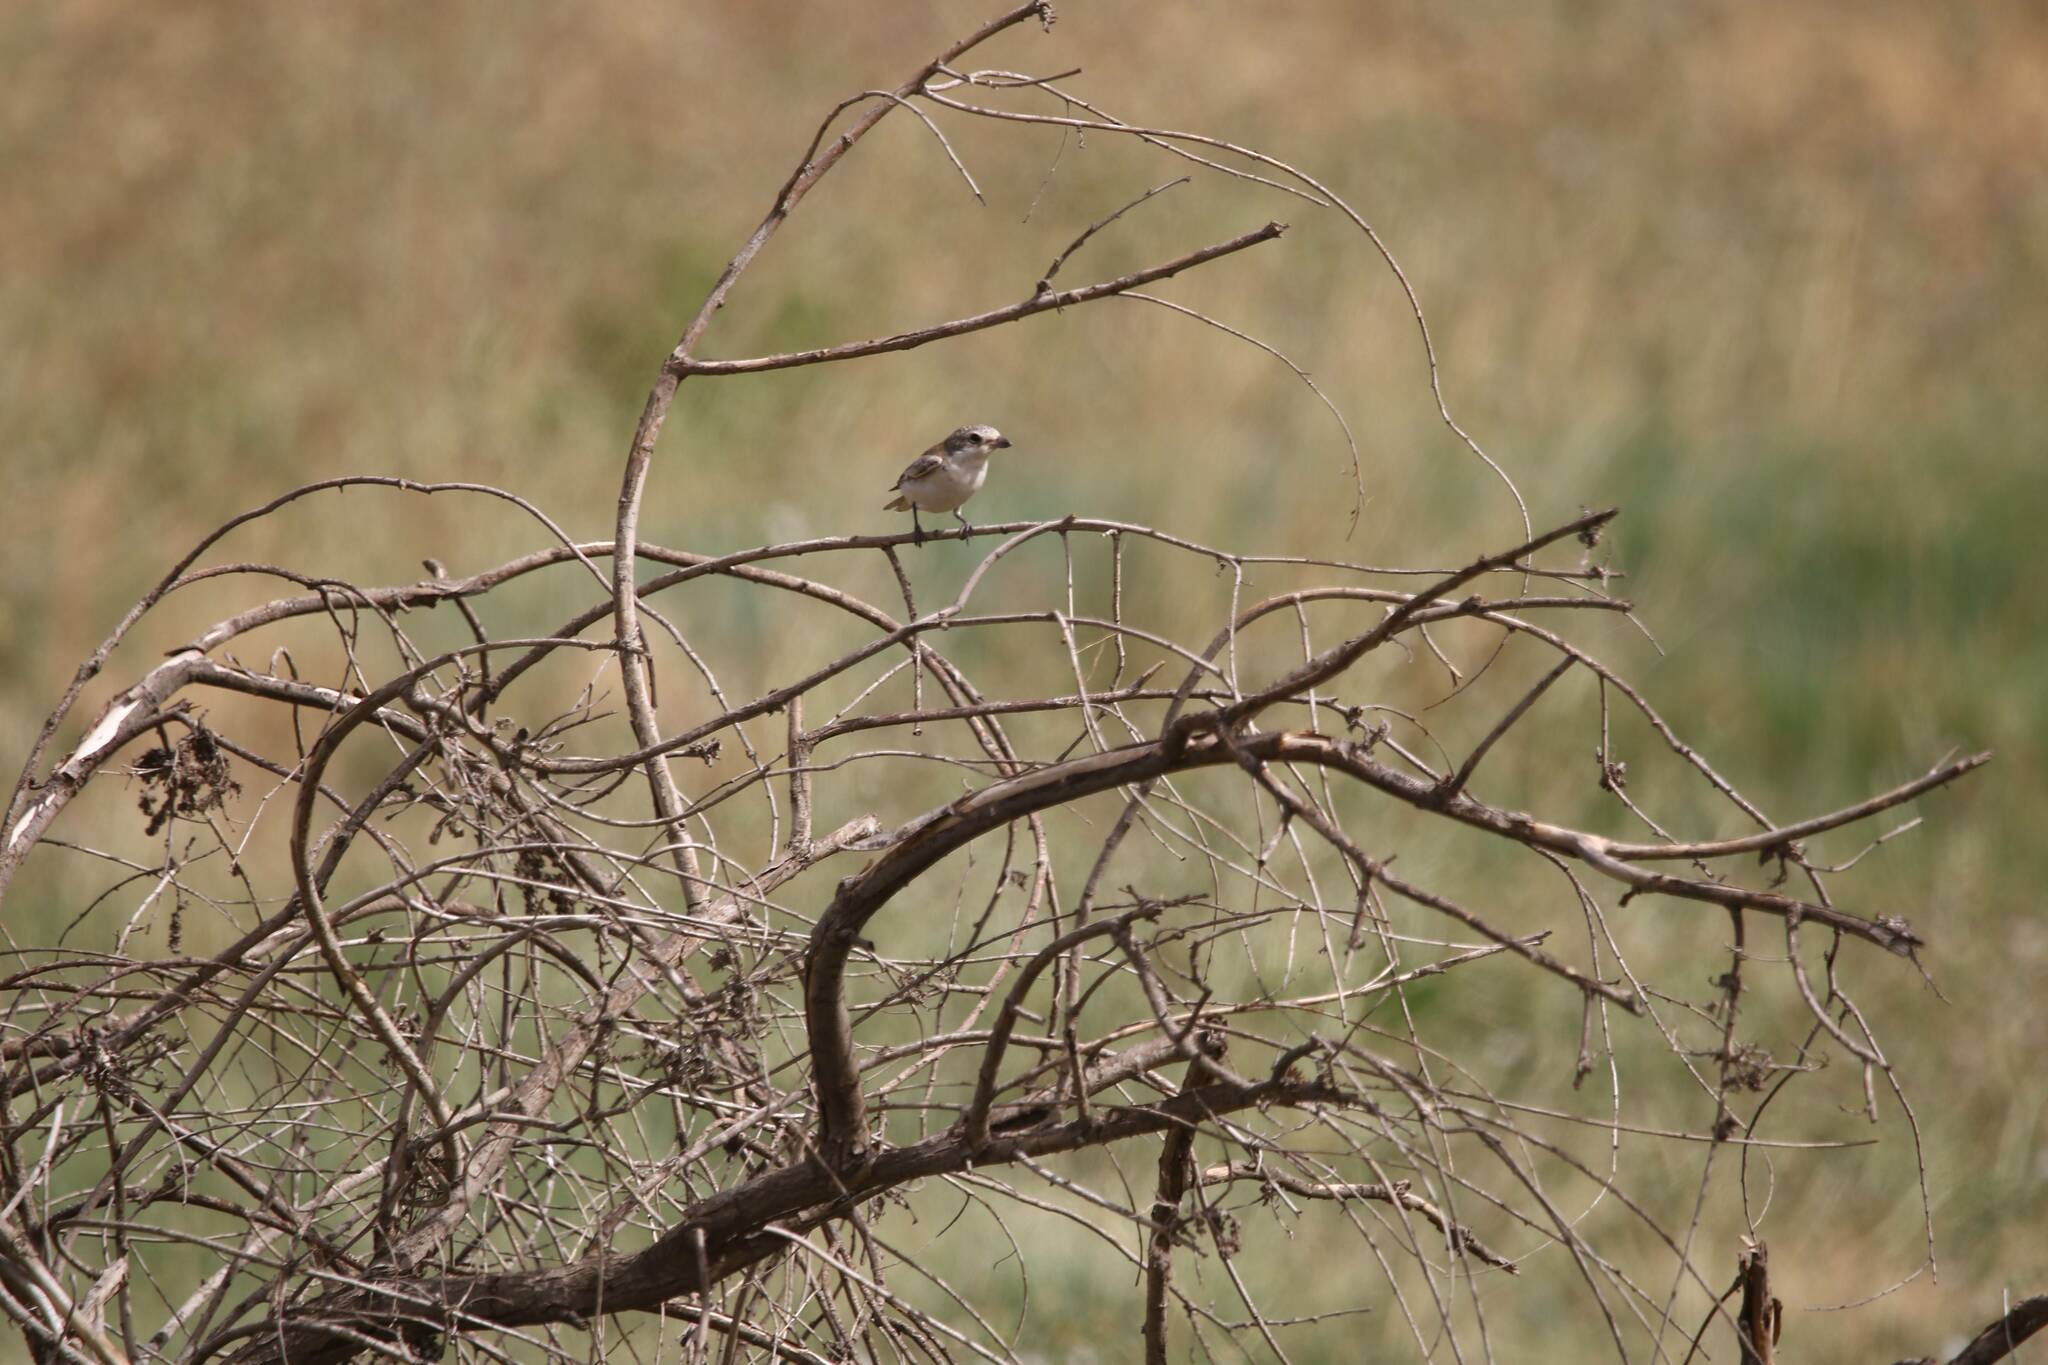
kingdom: Animalia
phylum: Chordata
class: Aves
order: Passeriformes
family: Laniidae
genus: Lanius
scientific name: Lanius senator
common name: Woodchat shrike
